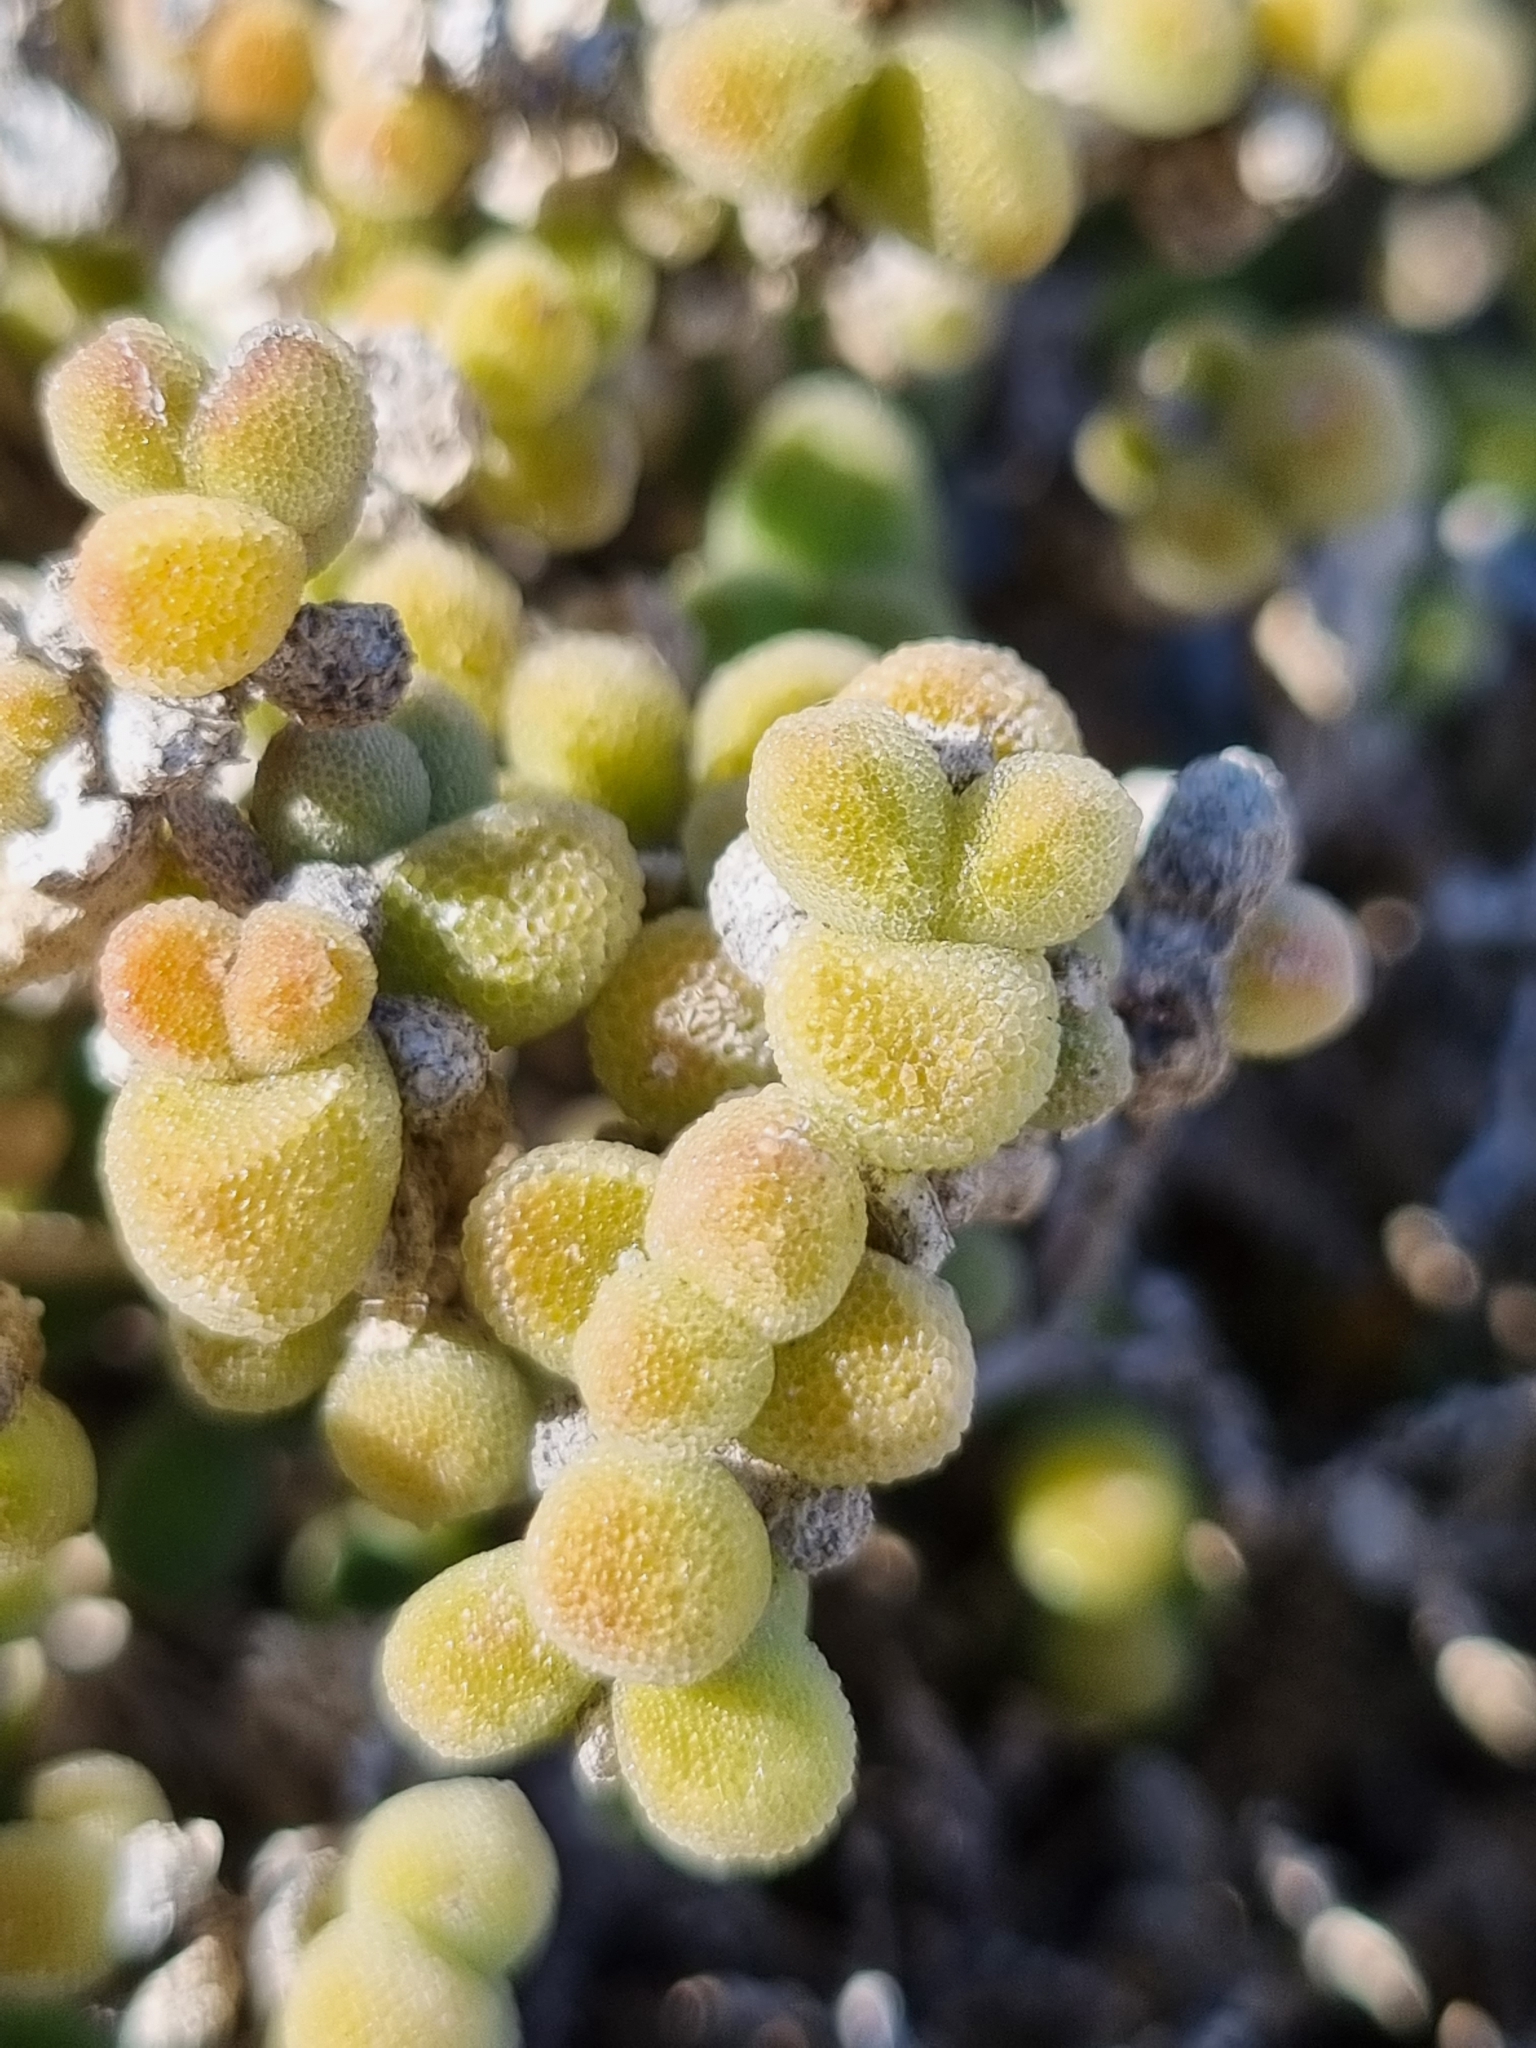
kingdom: Plantae
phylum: Tracheophyta
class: Magnoliopsida
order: Caryophyllales
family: Aizoaceae
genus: Drosanthemum
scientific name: Drosanthemum luederitzii
